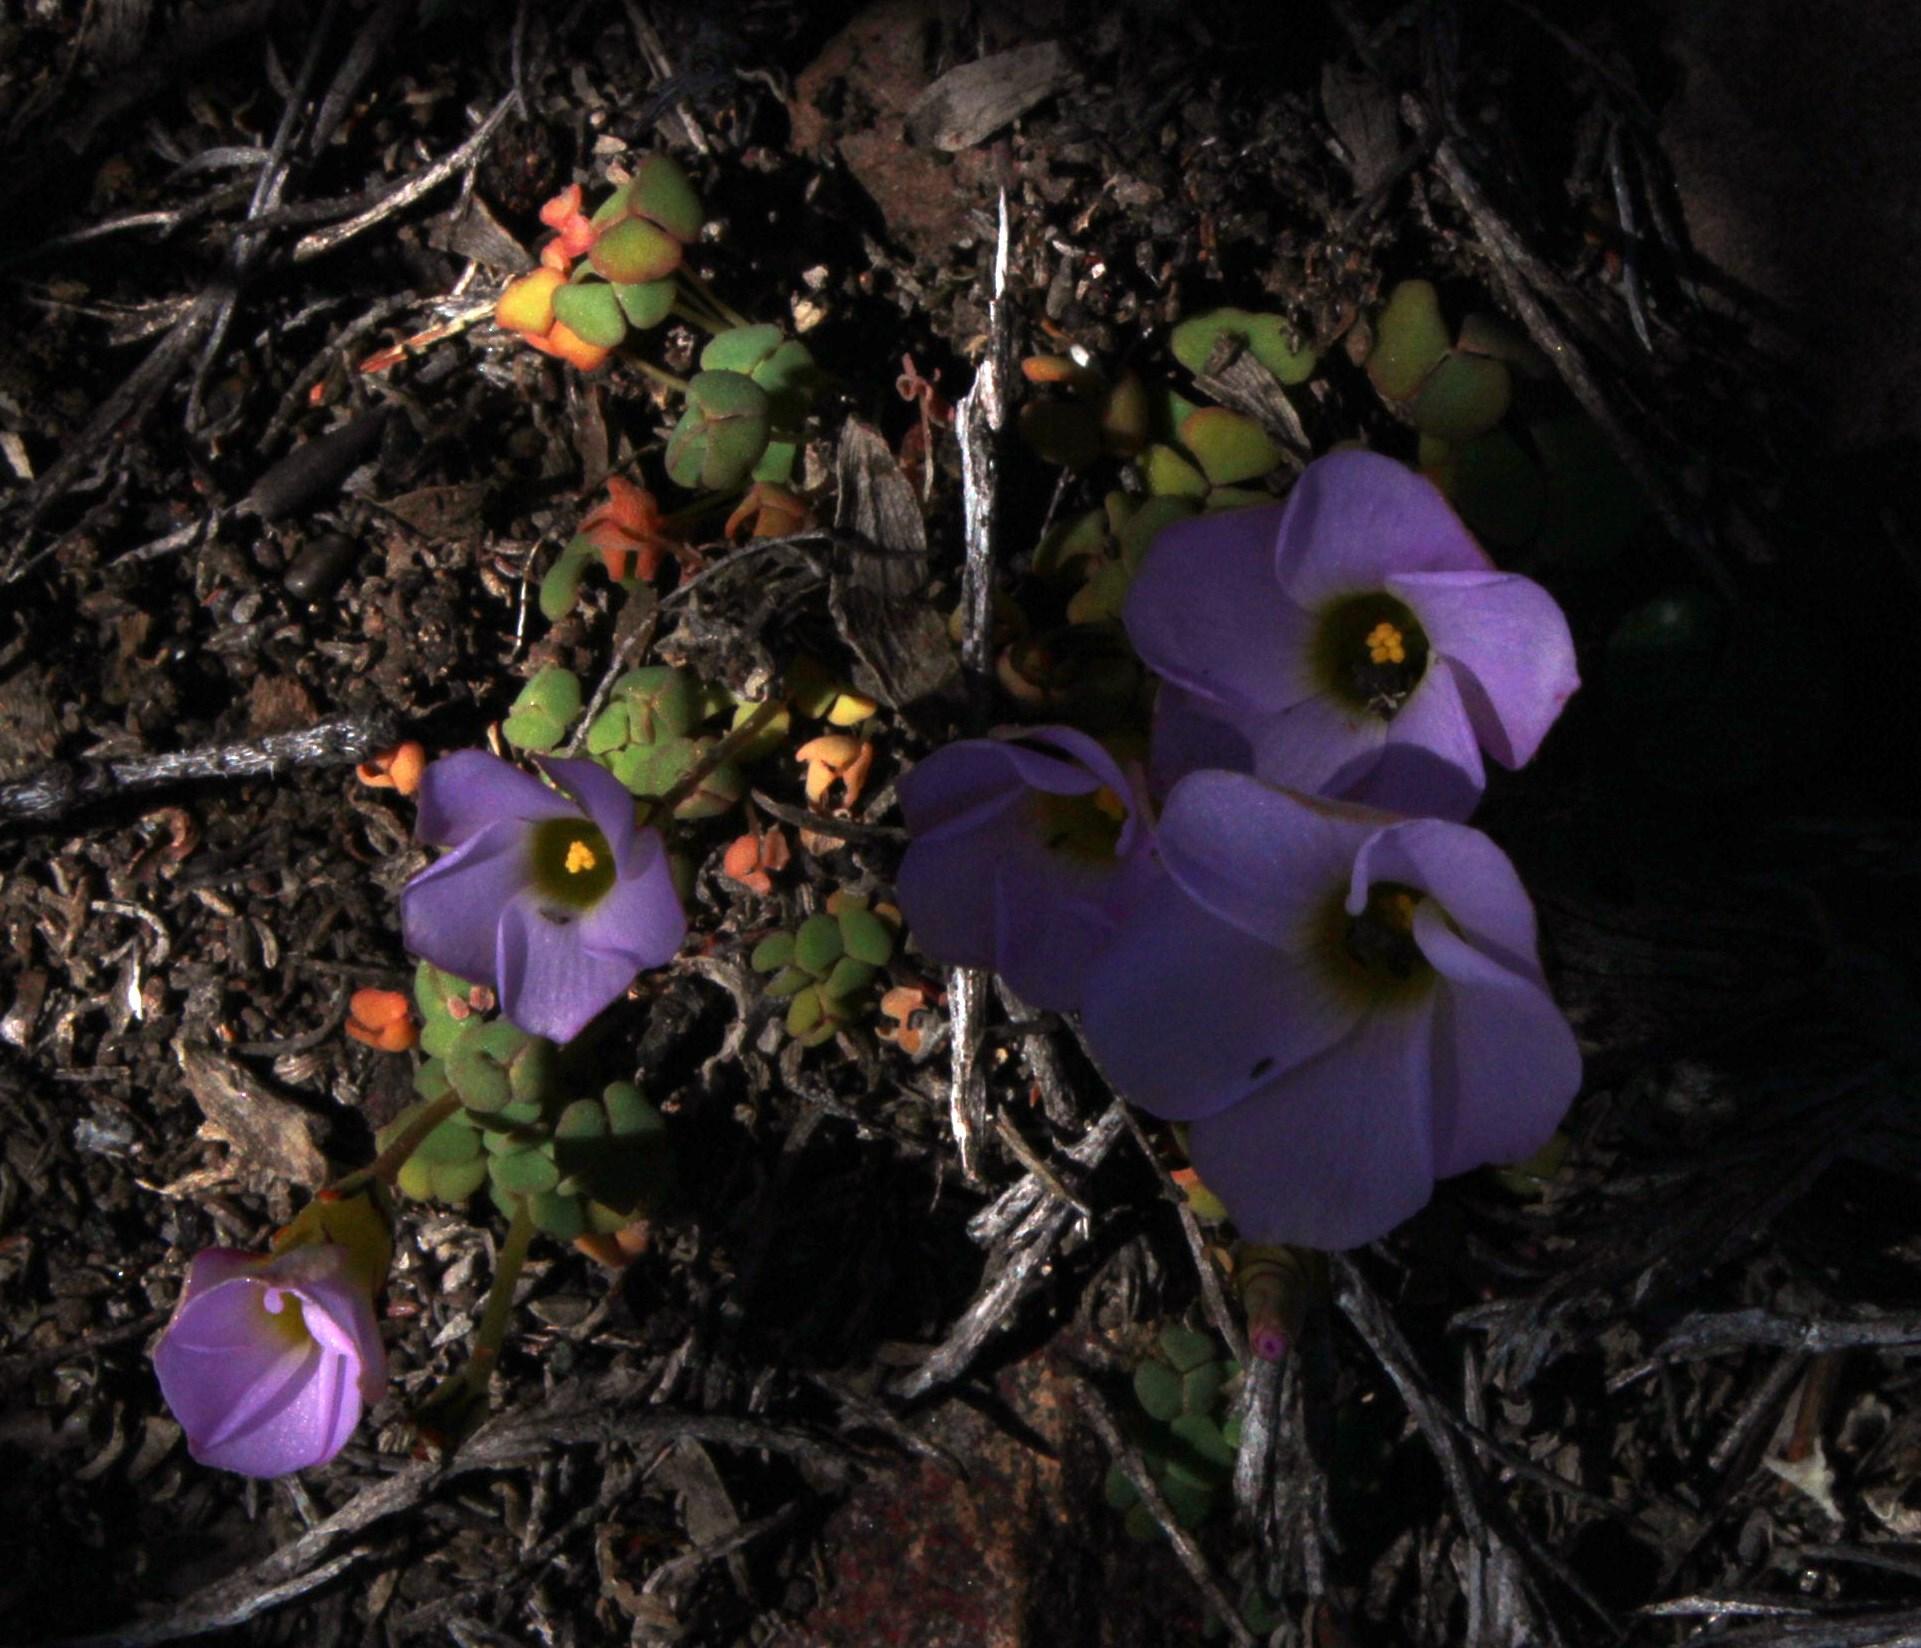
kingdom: Plantae
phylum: Tracheophyta
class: Magnoliopsida
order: Oxalidales
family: Oxalidaceae
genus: Oxalis
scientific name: Oxalis algoensis
